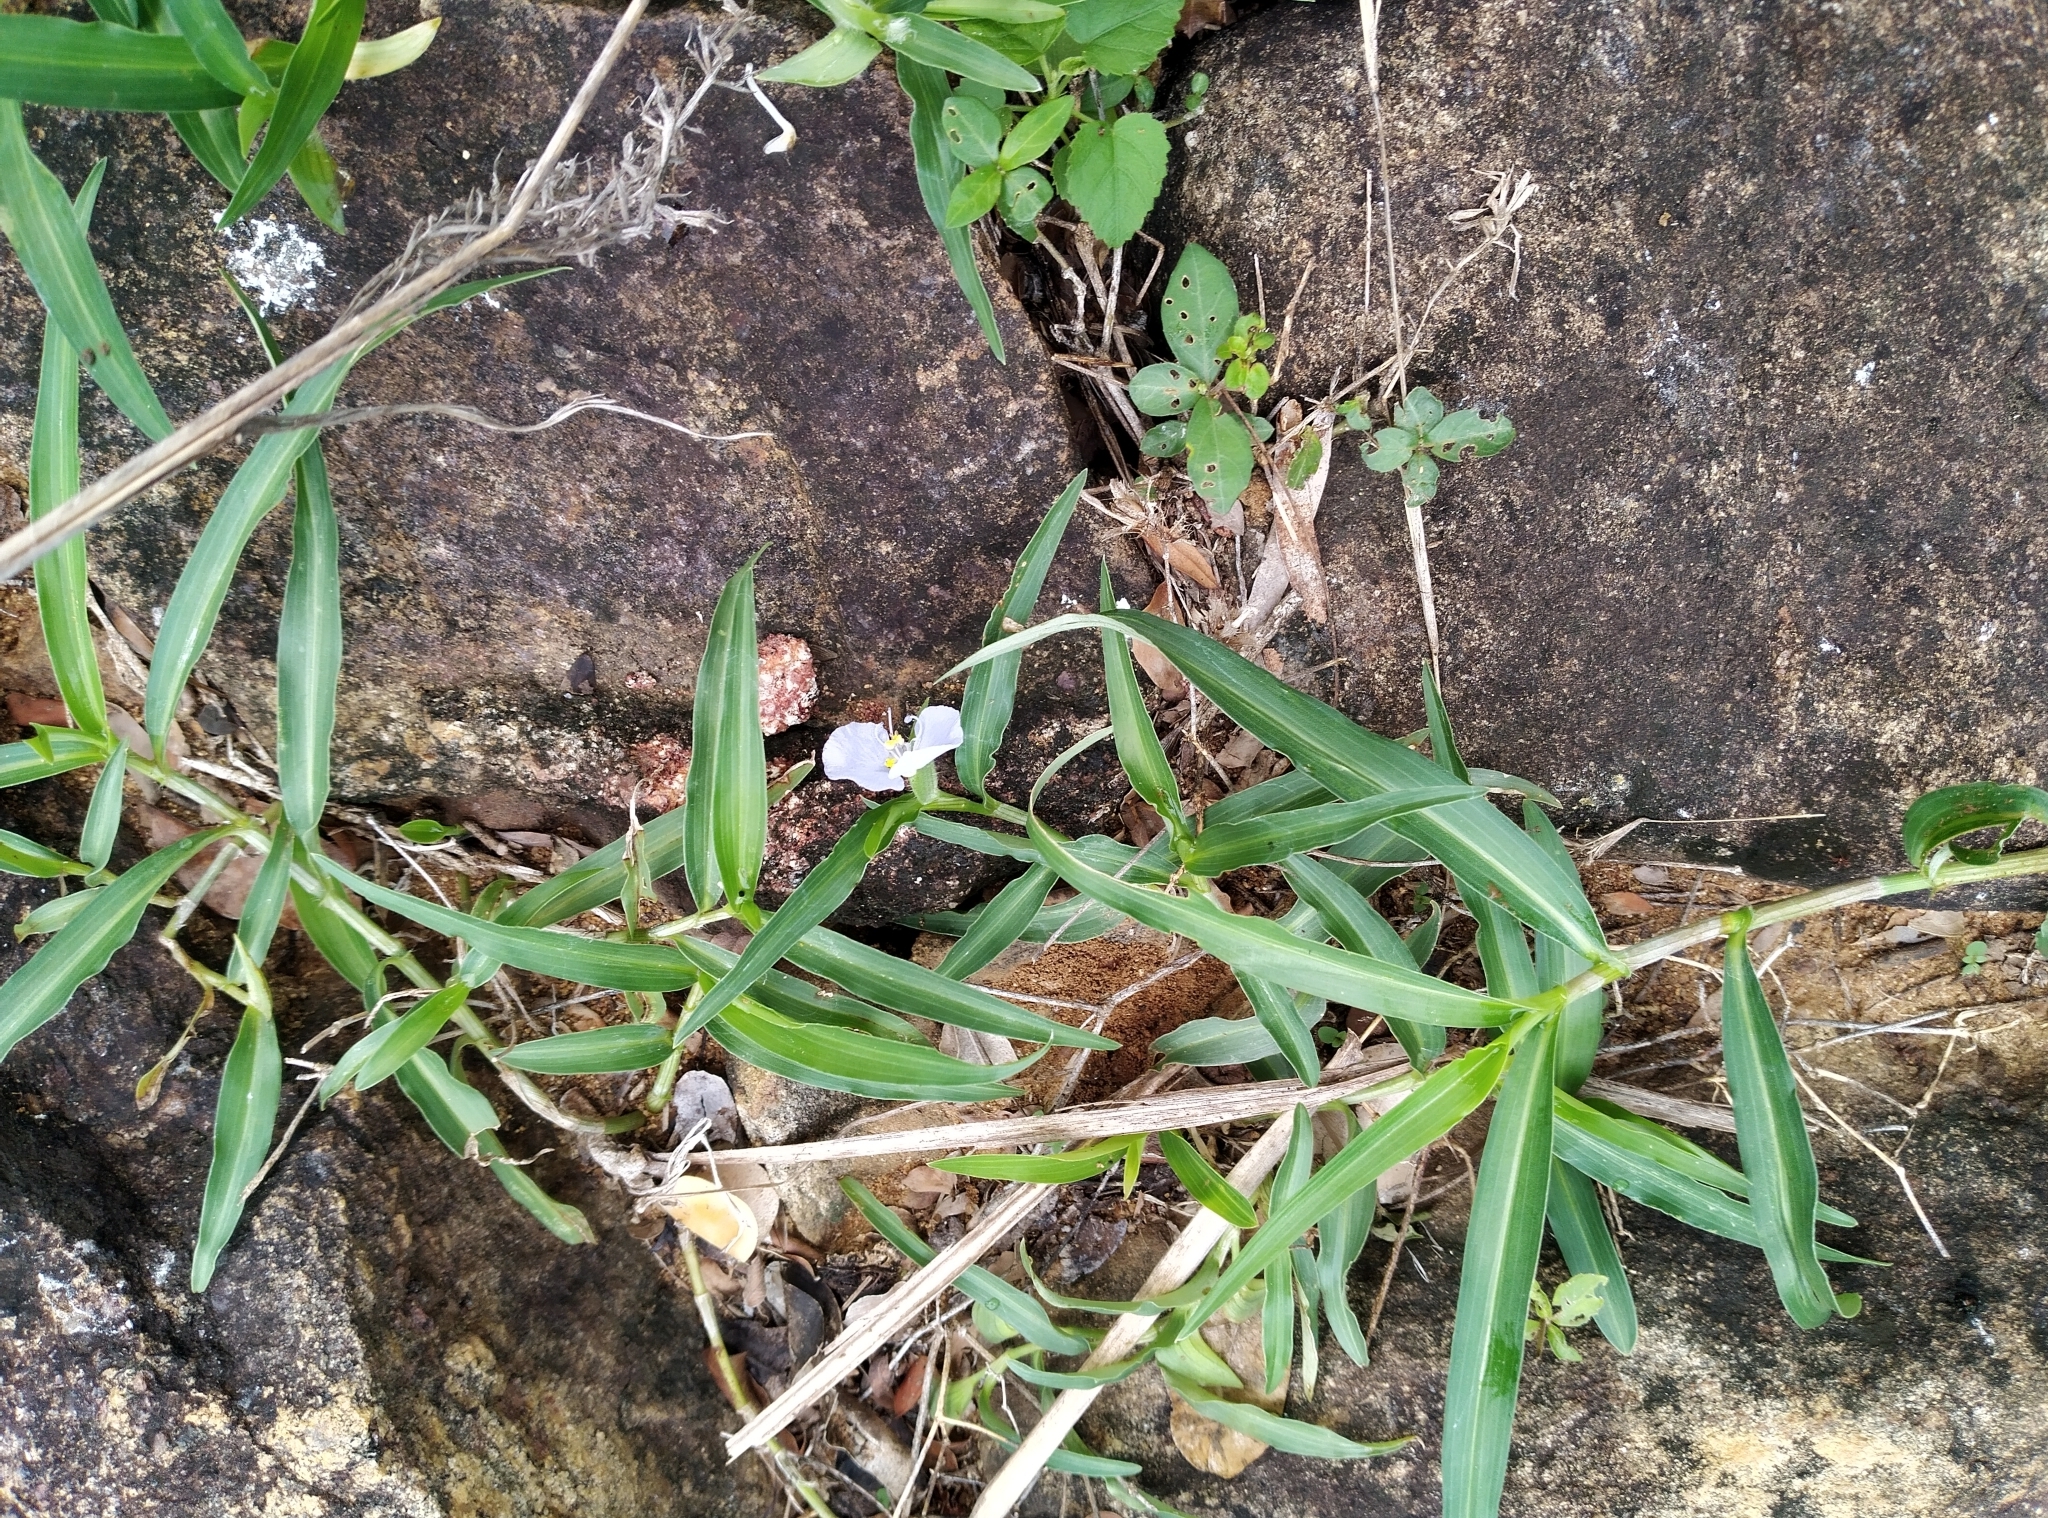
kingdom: Plantae
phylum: Tracheophyta
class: Liliopsida
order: Commelinales
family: Commelinaceae
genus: Commelina
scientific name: Commelina ensifolia
